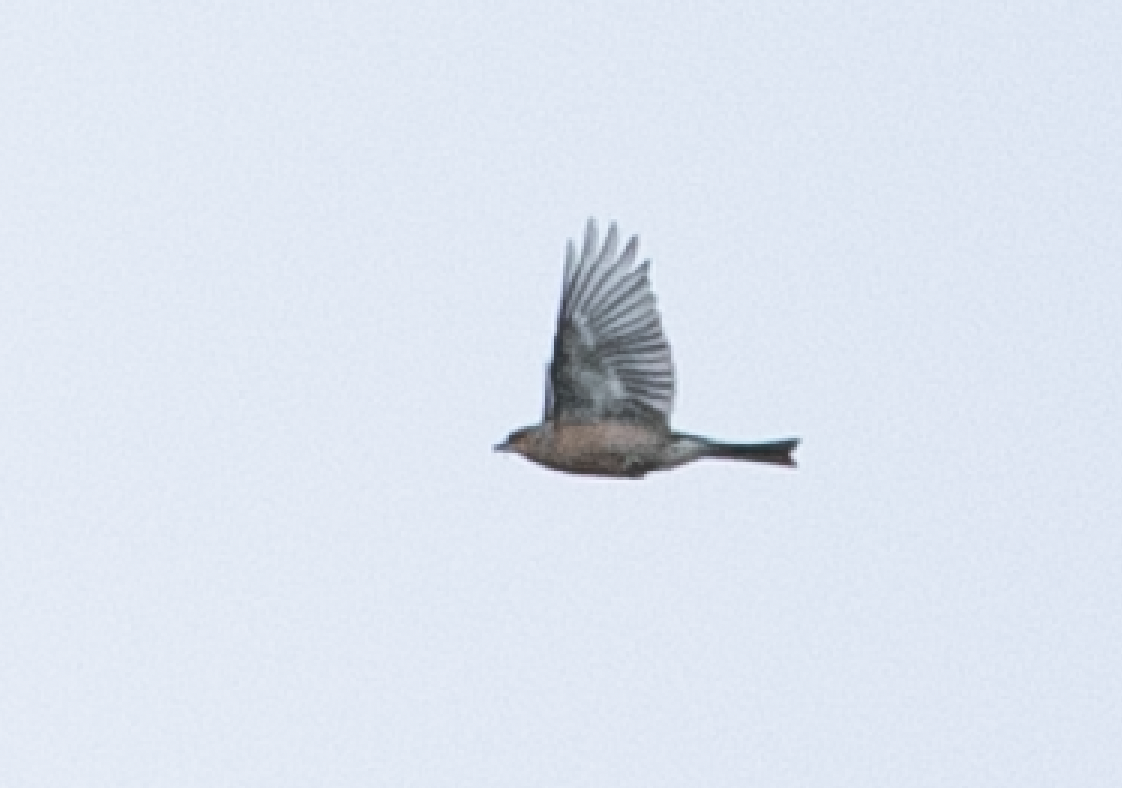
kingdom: Animalia
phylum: Chordata
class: Aves
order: Passeriformes
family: Fringillidae
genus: Fringilla
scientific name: Fringilla coelebs
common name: Common chaffinch
